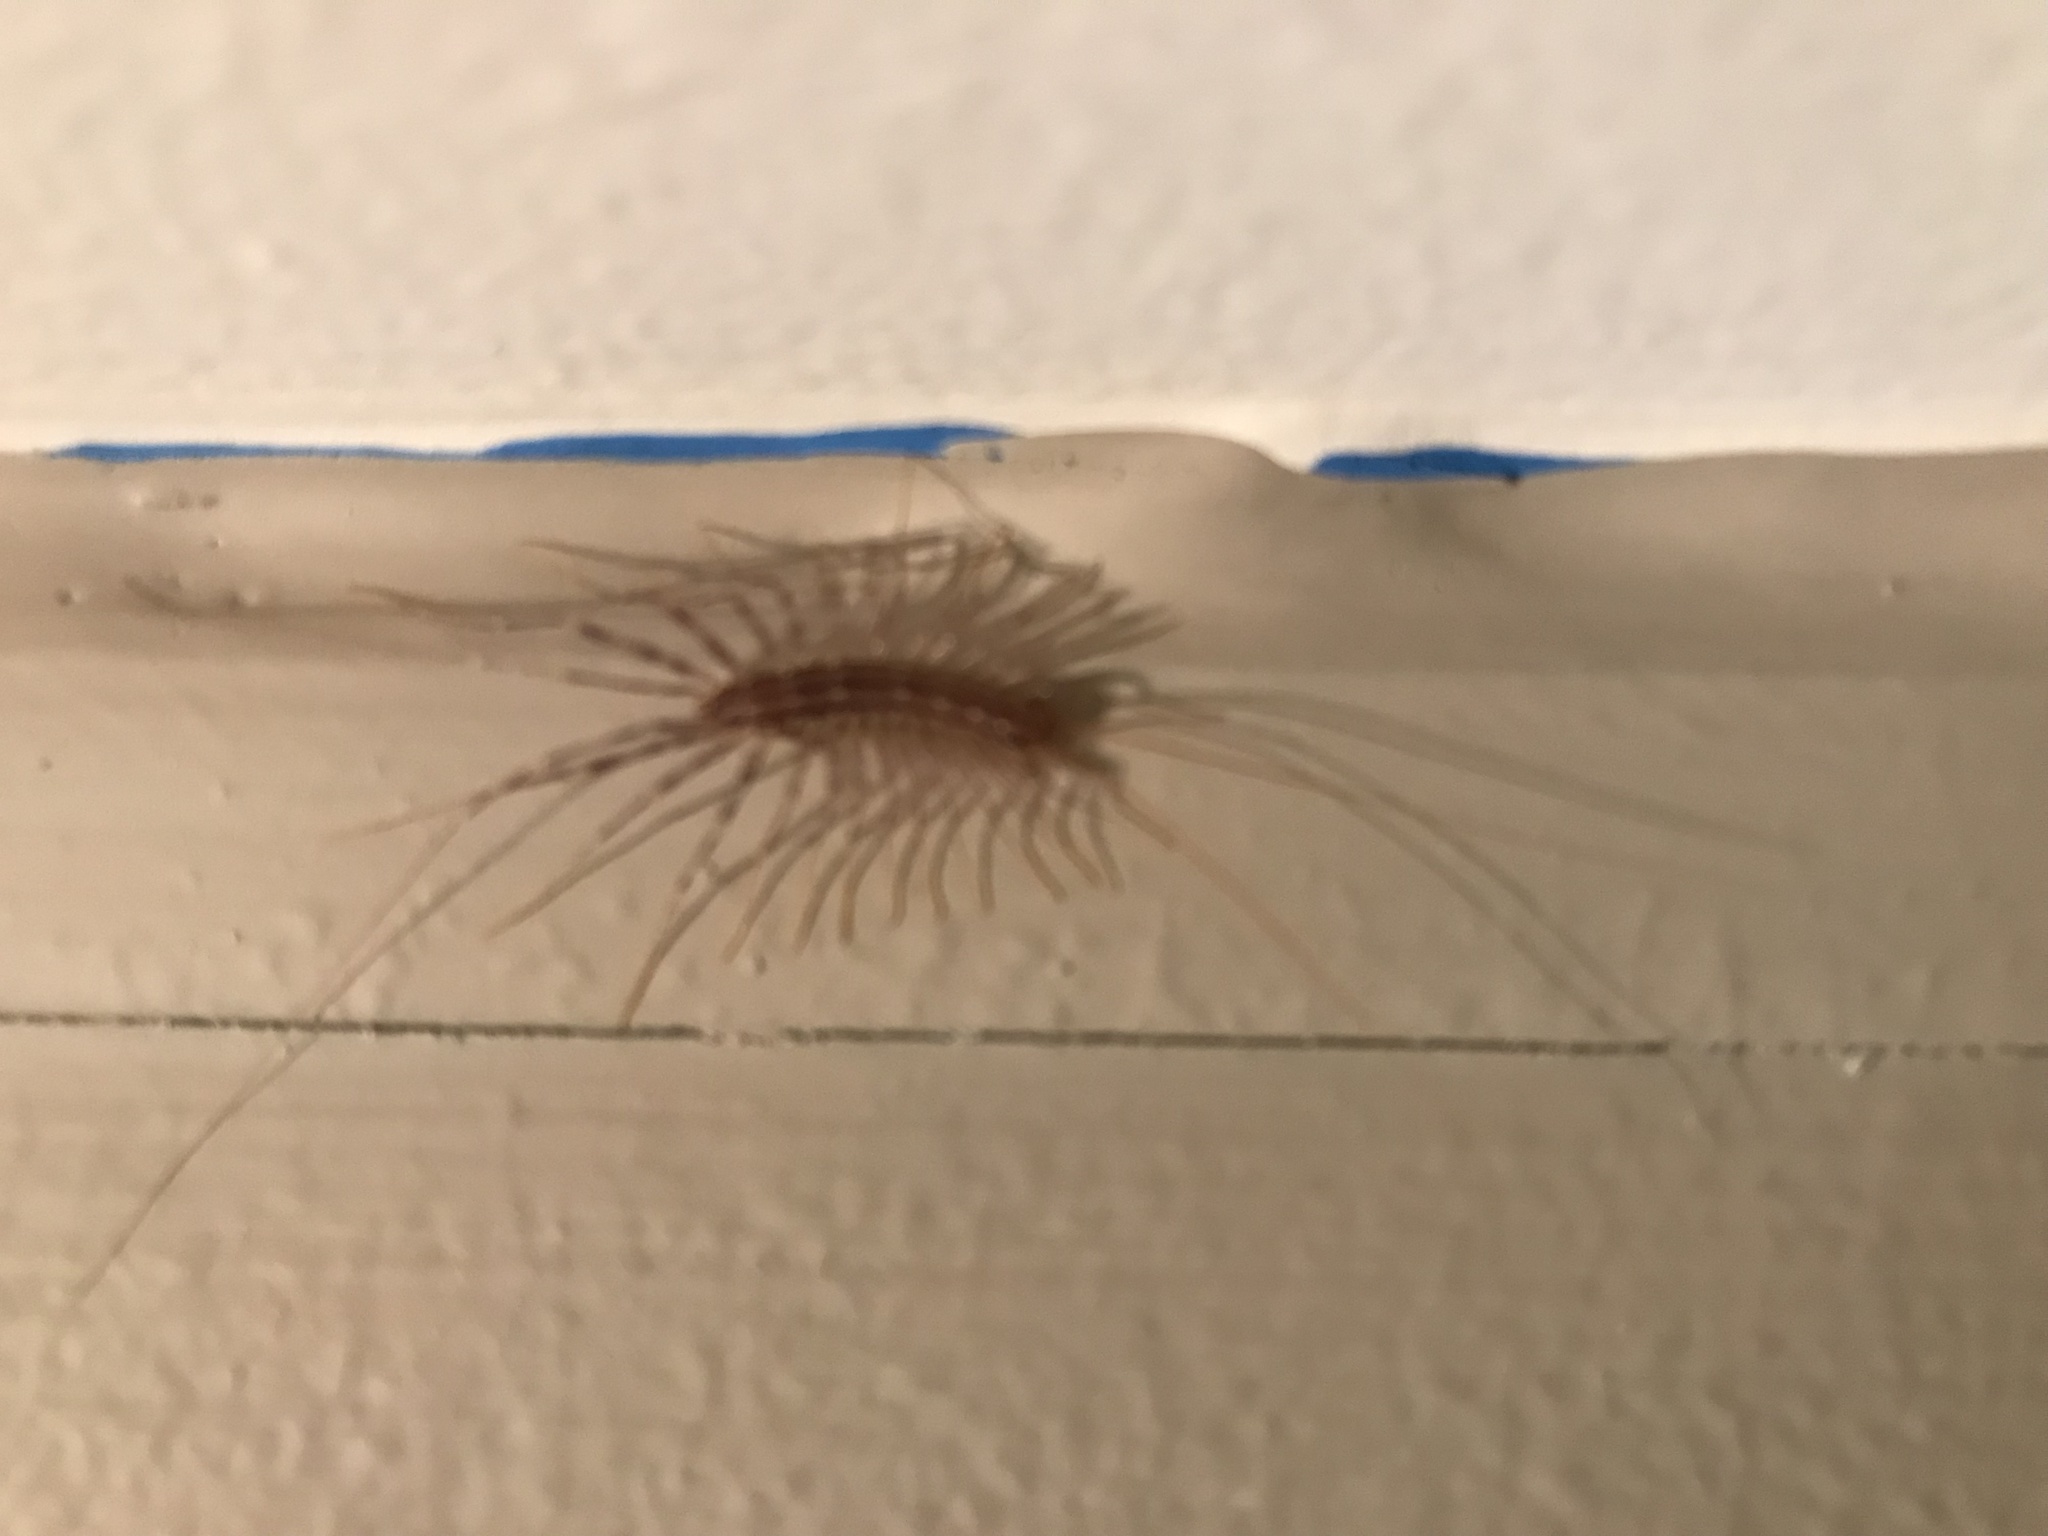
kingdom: Animalia
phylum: Arthropoda
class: Chilopoda
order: Scutigeromorpha
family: Scutigeridae
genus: Scutigera
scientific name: Scutigera coleoptrata
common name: House centipede
